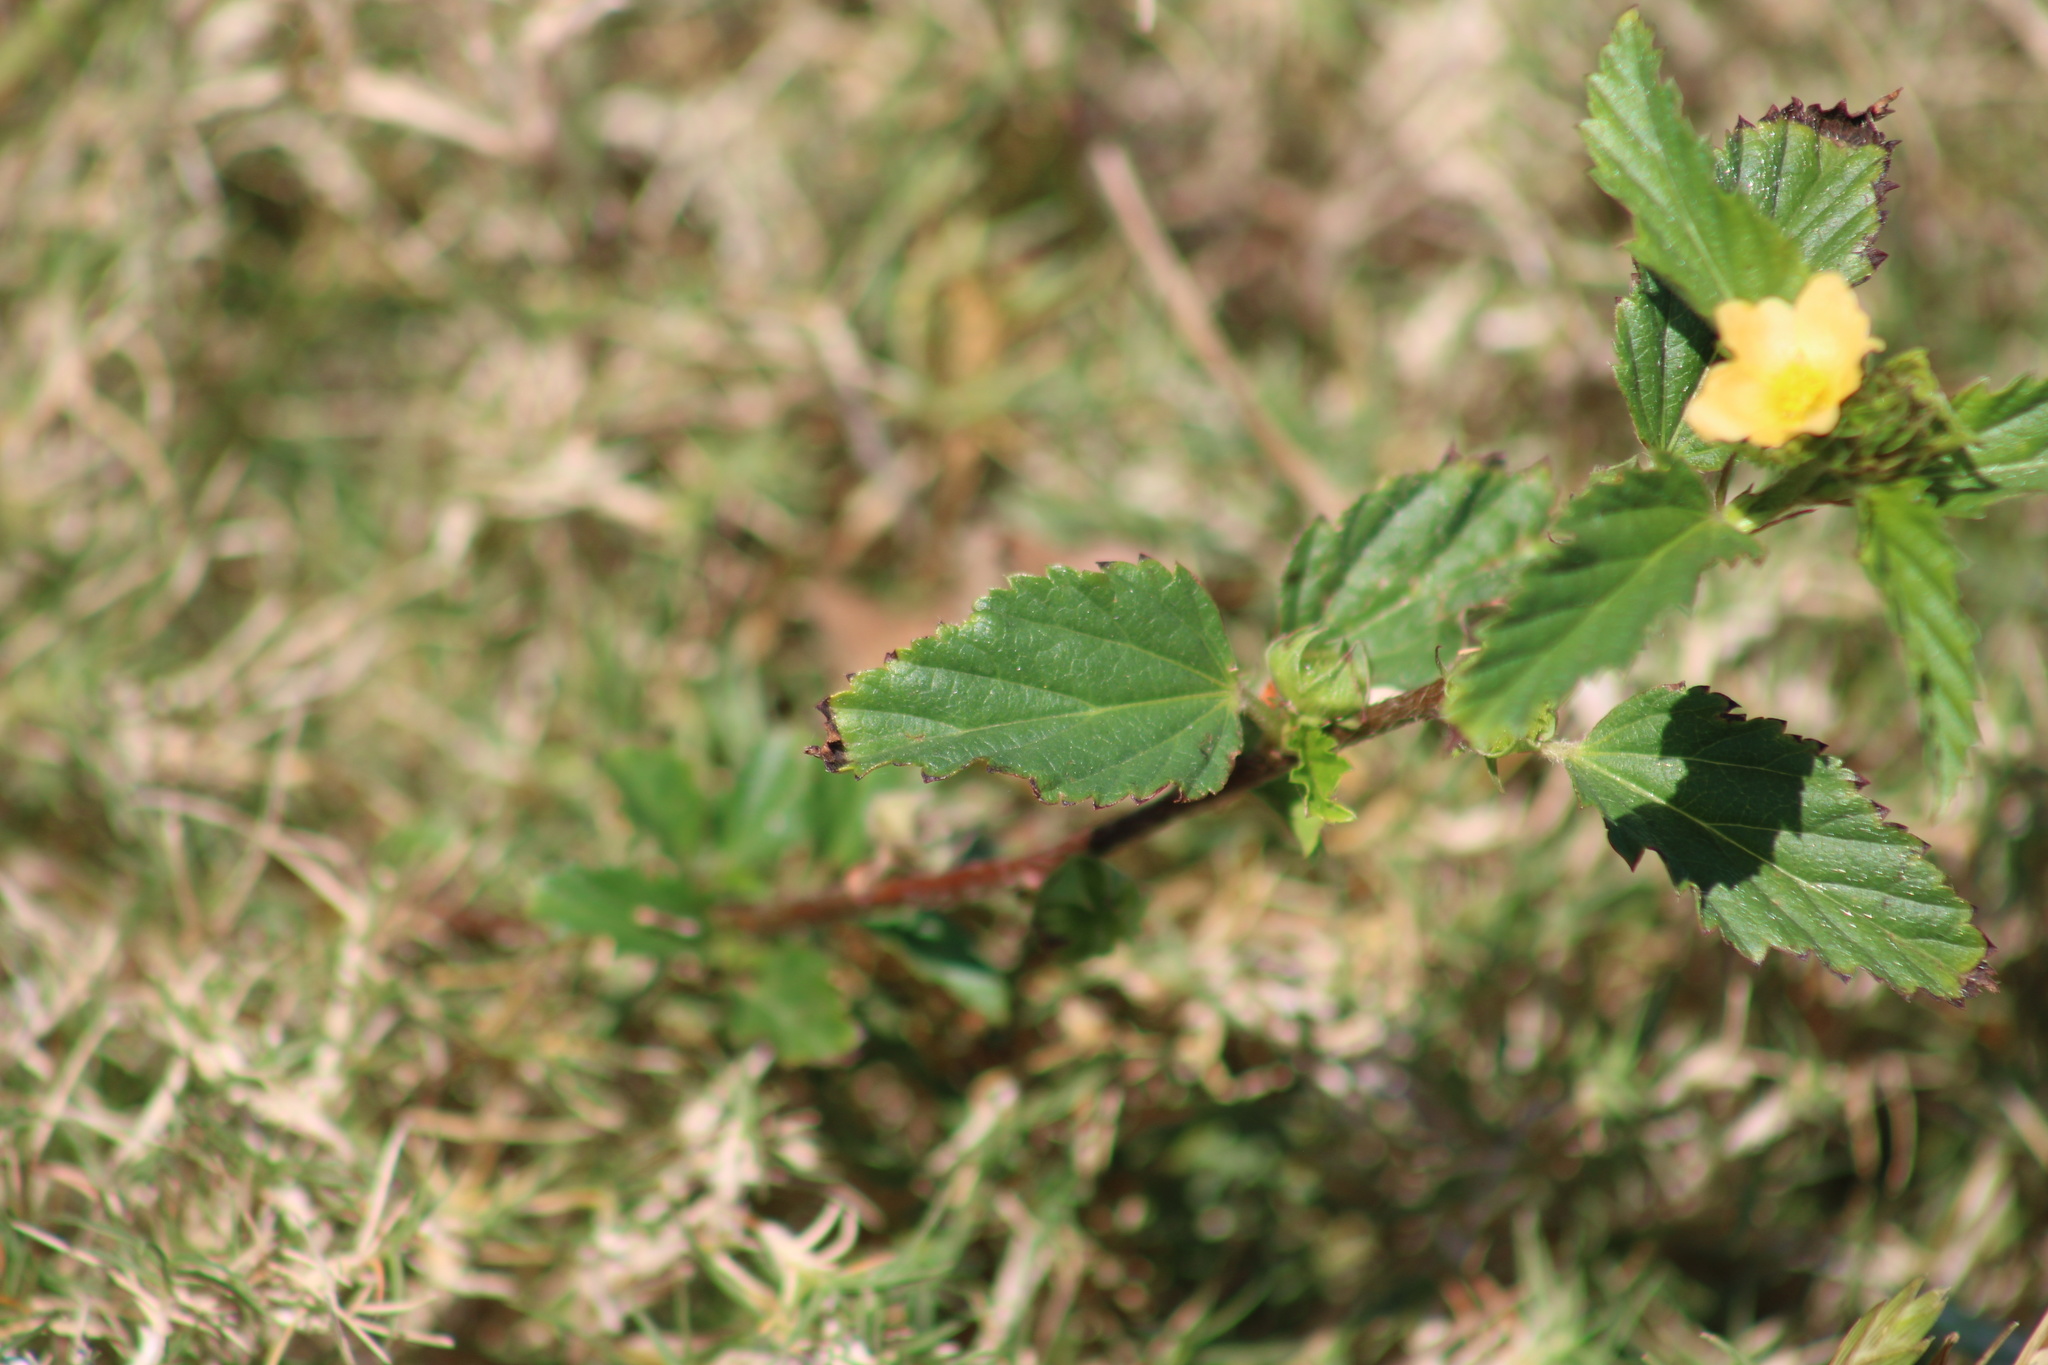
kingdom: Plantae
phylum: Tracheophyta
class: Magnoliopsida
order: Malvales
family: Malvaceae
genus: Sida
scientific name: Sida rhombifolia
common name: Queensland-hemp
